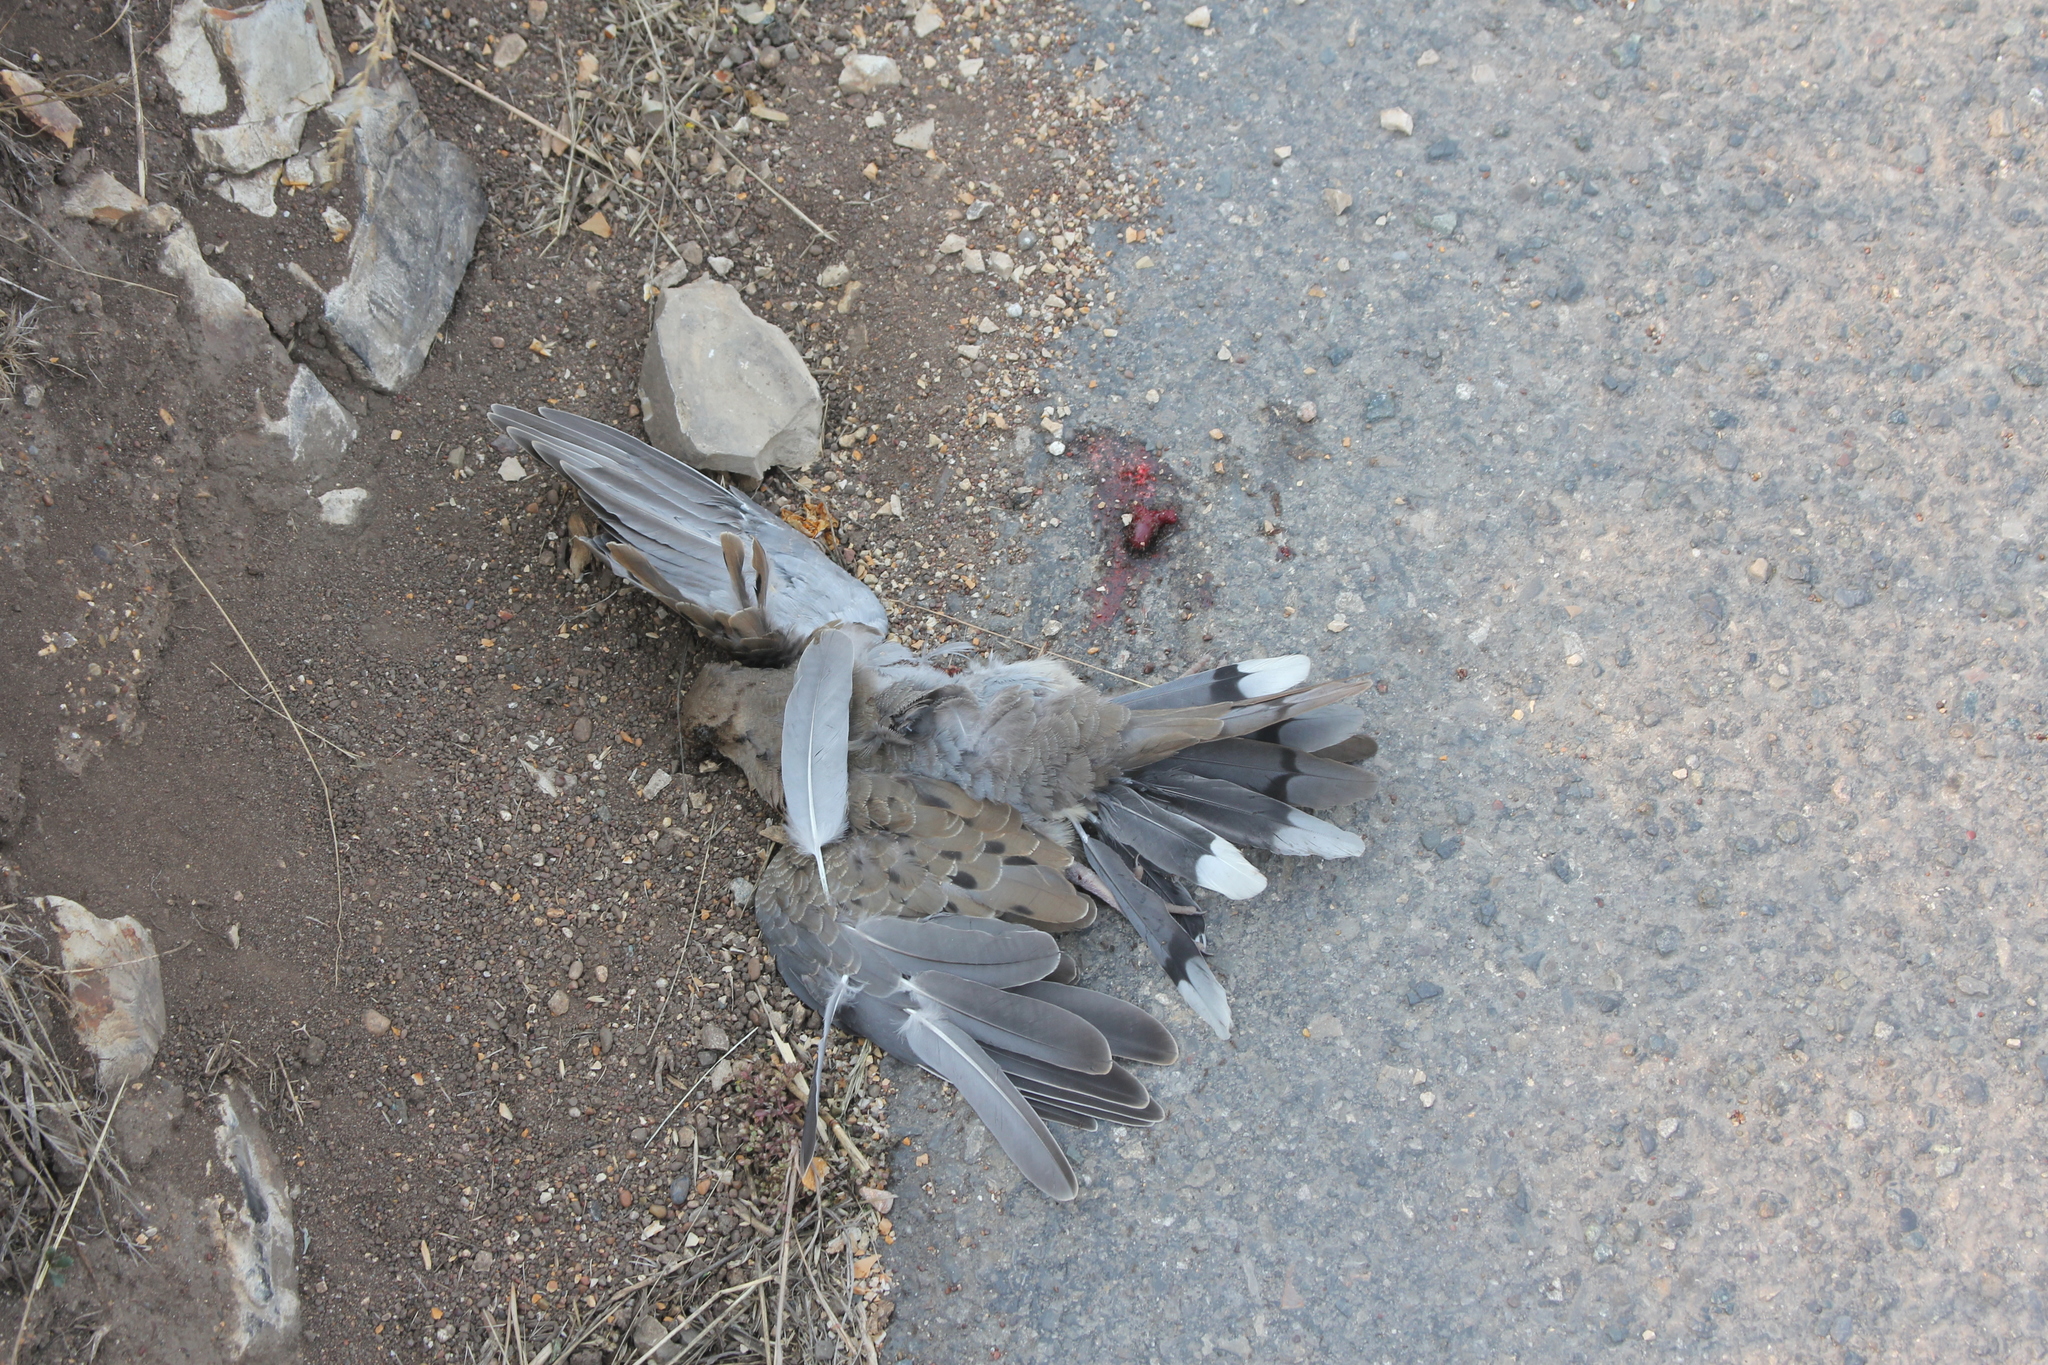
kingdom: Animalia
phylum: Chordata
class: Aves
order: Columbiformes
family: Columbidae
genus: Zenaida
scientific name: Zenaida macroura
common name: Mourning dove
